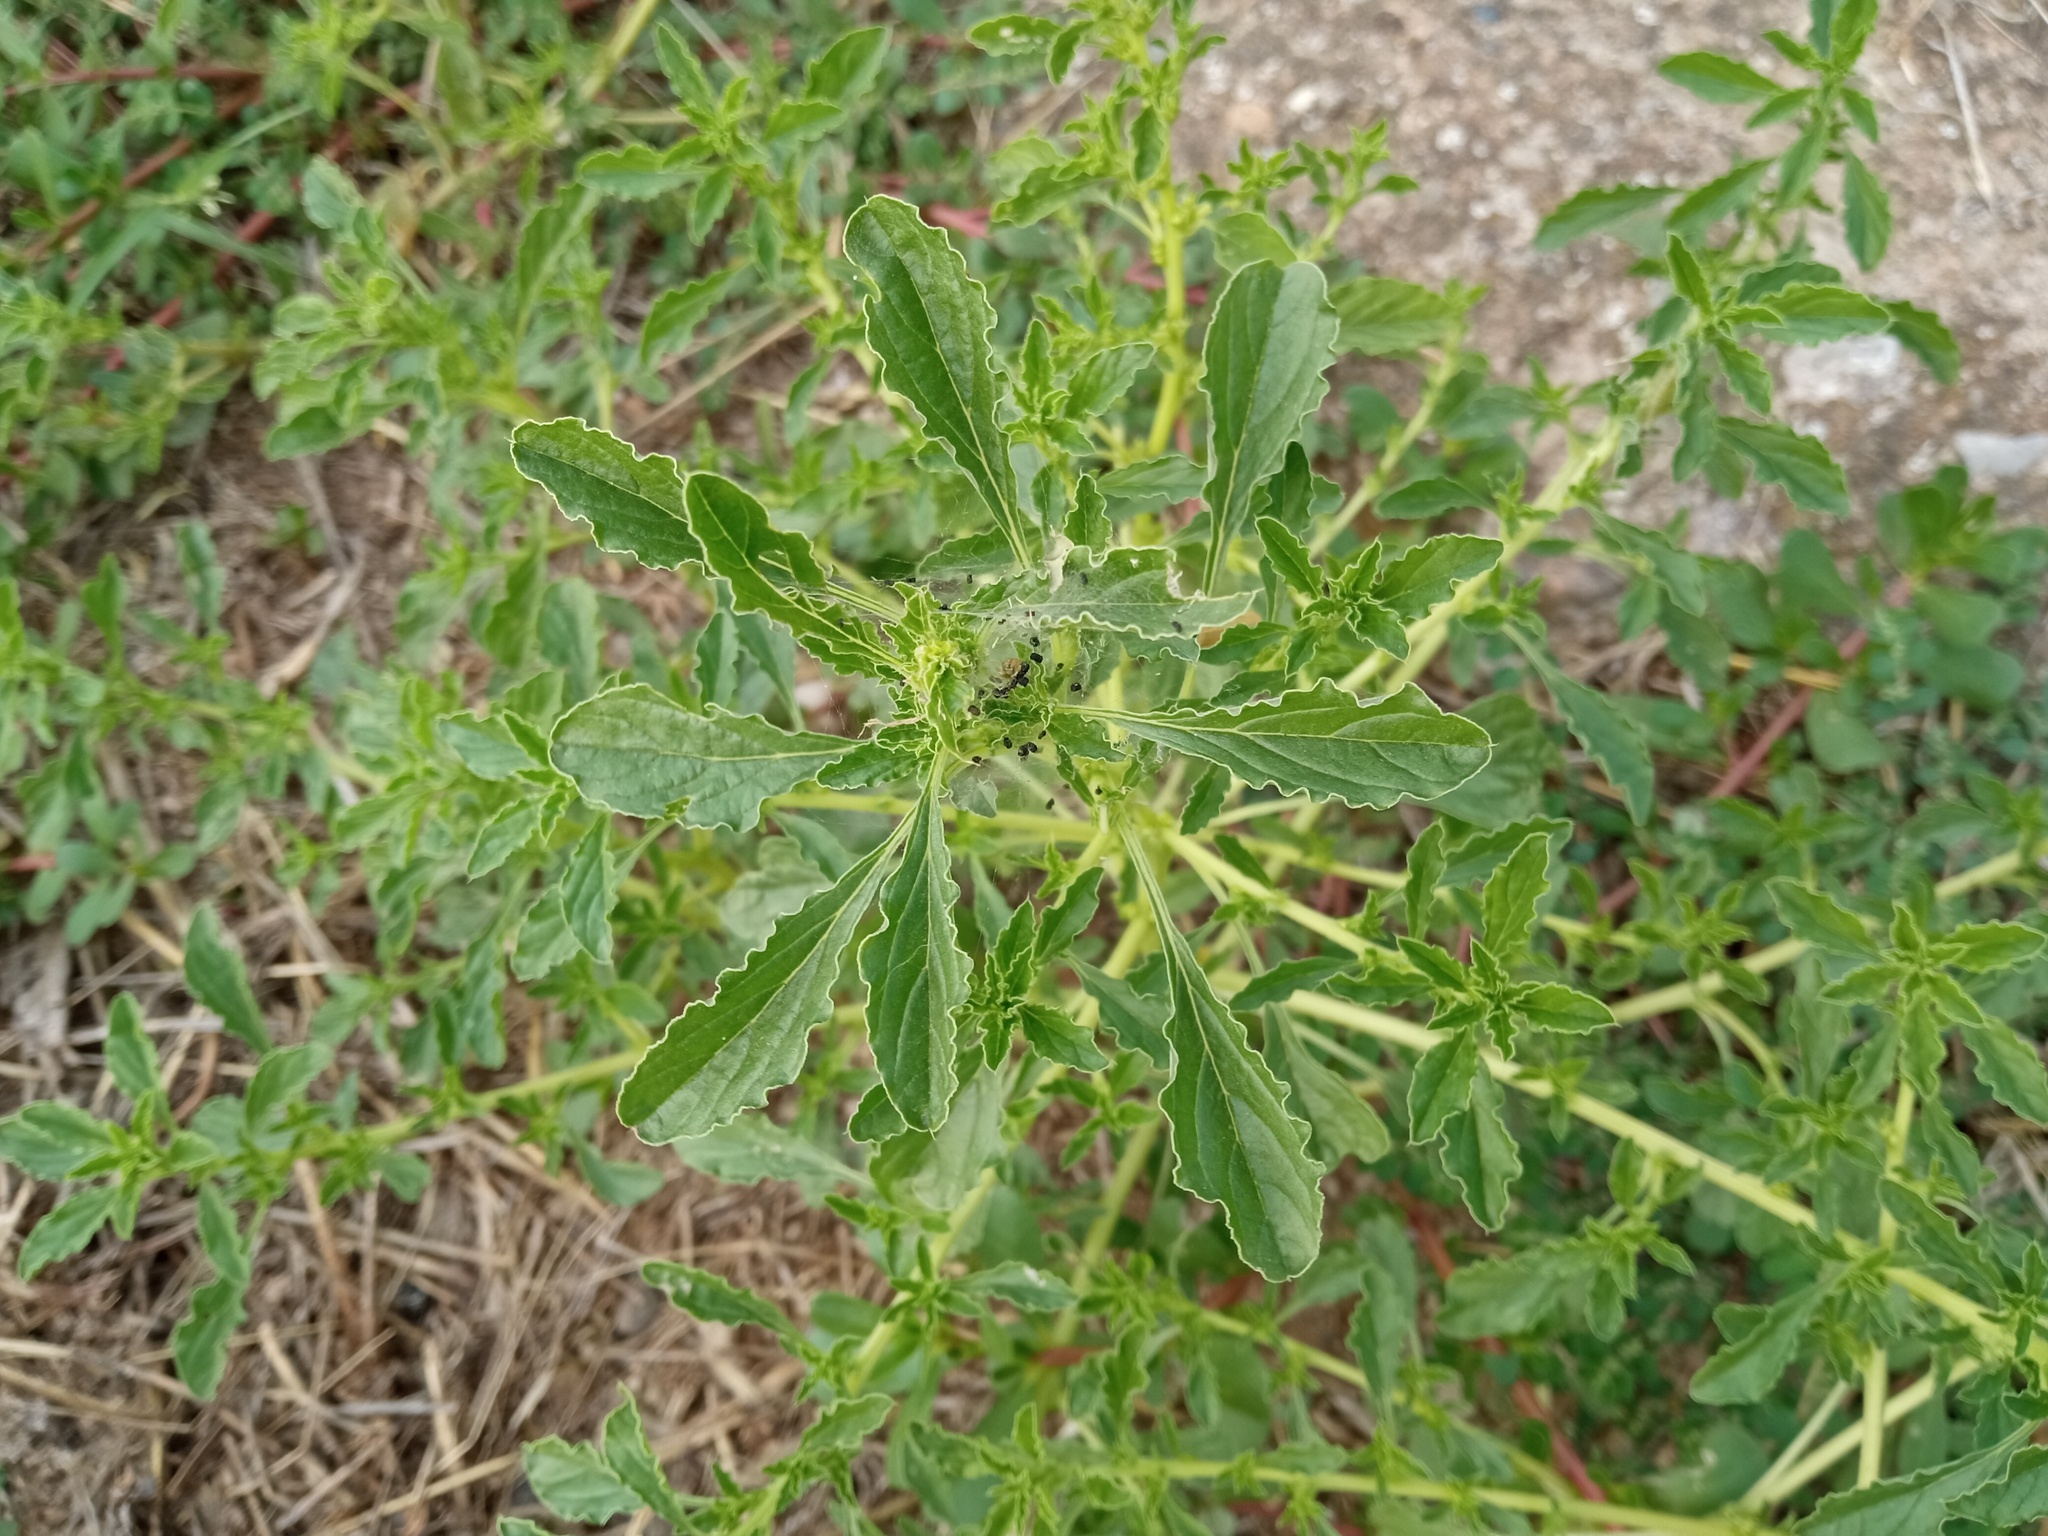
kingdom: Plantae
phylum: Tracheophyta
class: Magnoliopsida
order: Caryophyllales
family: Amaranthaceae
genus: Amaranthus
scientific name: Amaranthus albus
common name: White pigweed
